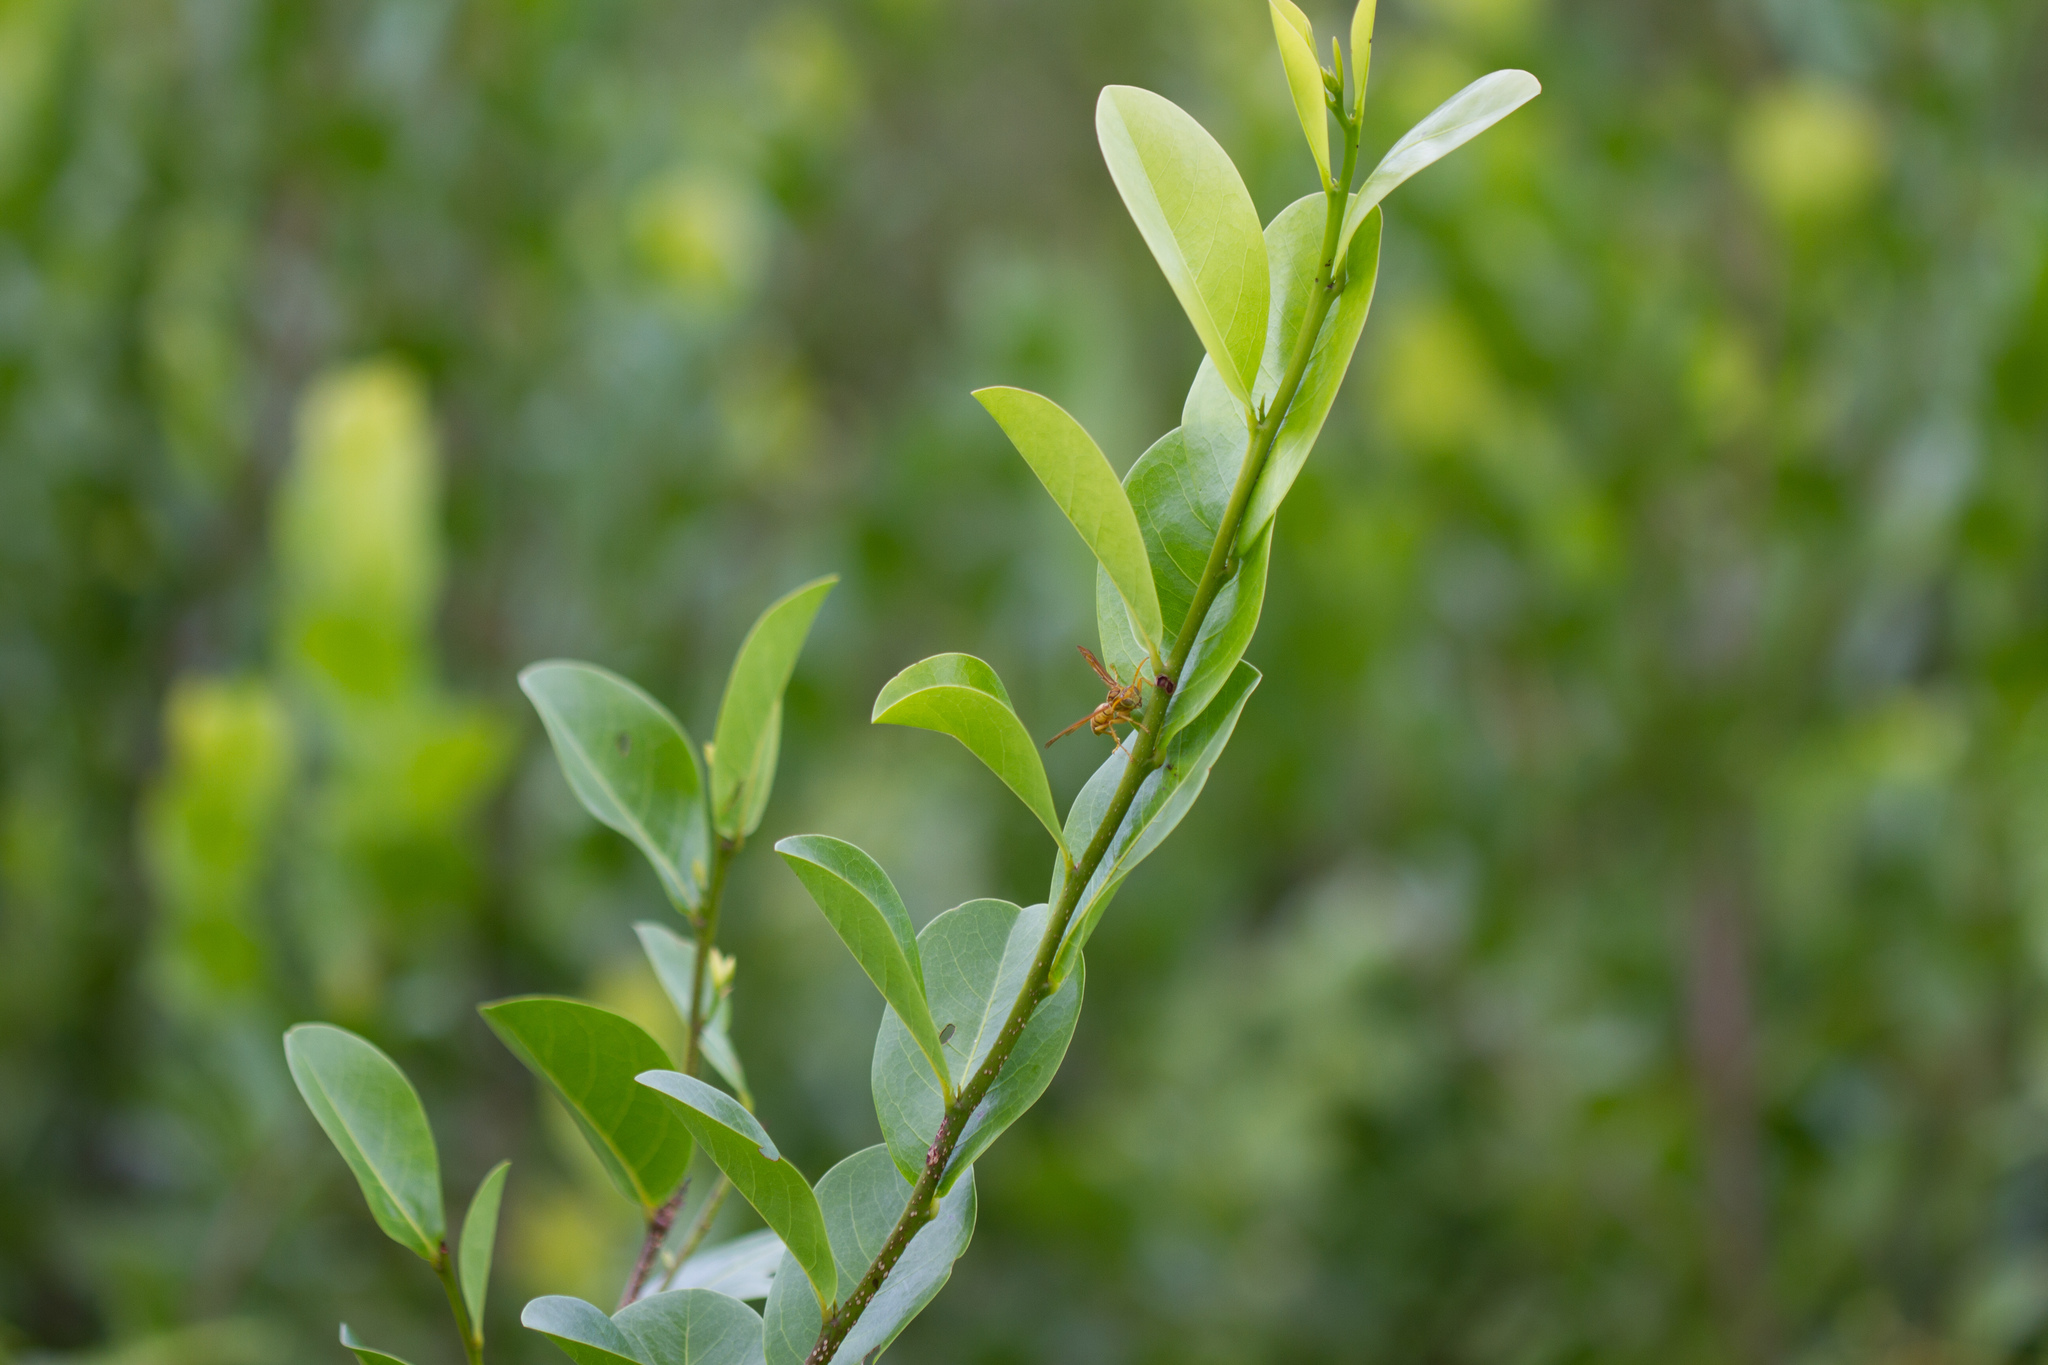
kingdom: Animalia
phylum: Arthropoda
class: Insecta
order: Hymenoptera
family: Eumenidae
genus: Polistes
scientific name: Polistes olivaceus
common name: Paper wasp
